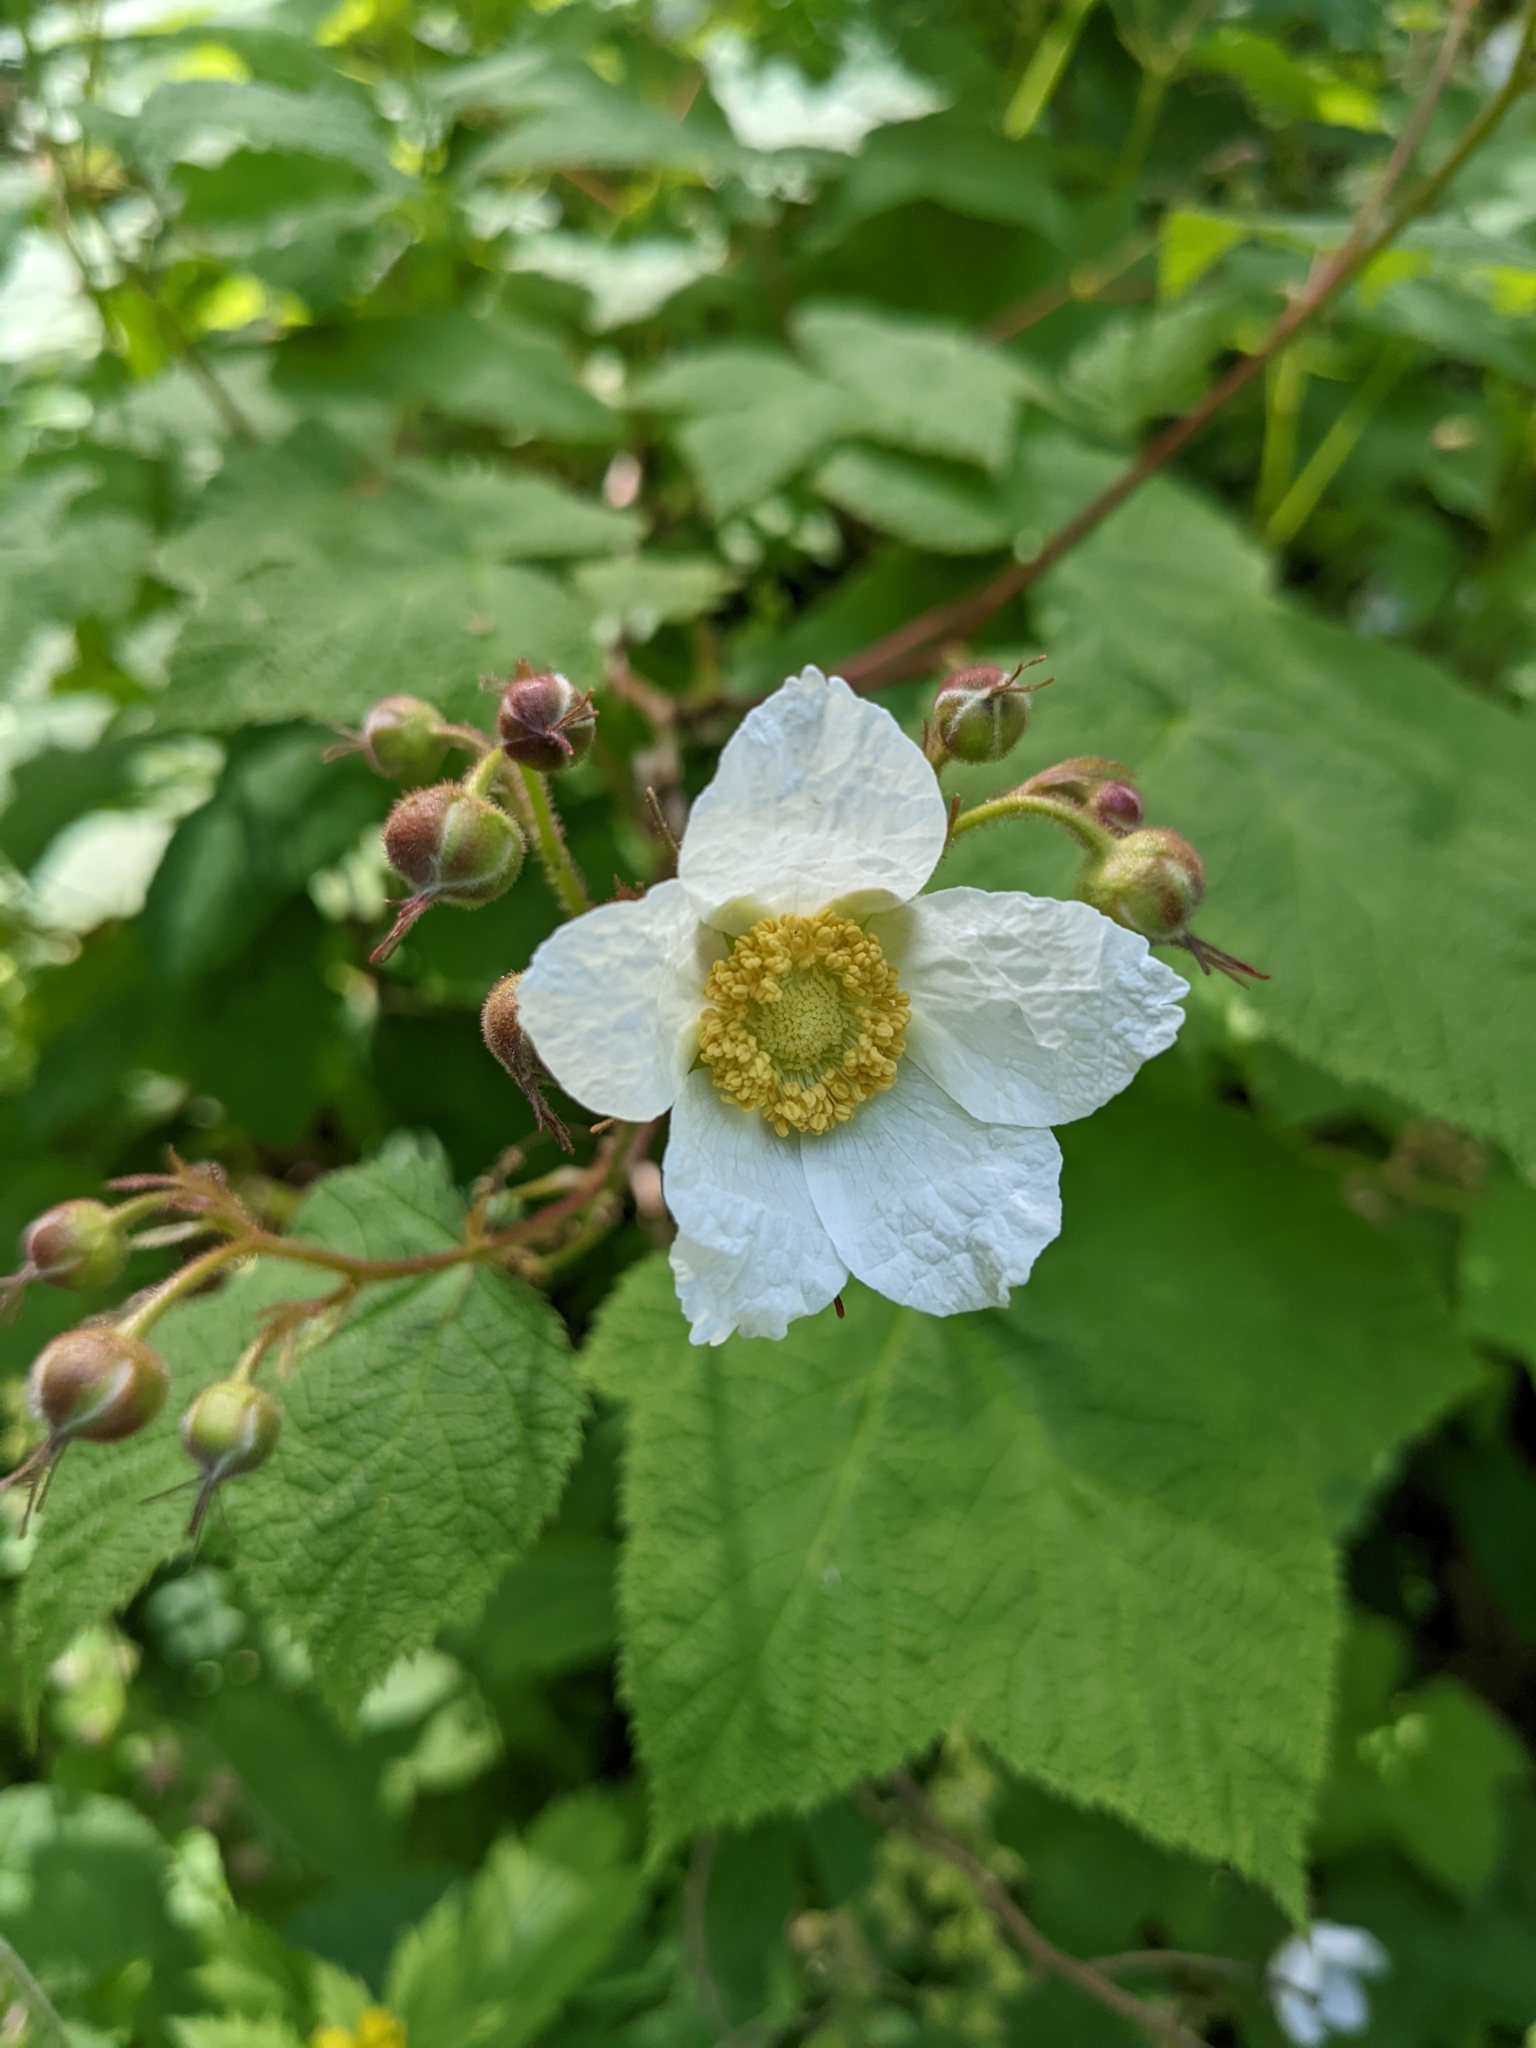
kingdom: Plantae
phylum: Tracheophyta
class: Magnoliopsida
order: Rosales
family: Rosaceae
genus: Rubus
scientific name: Rubus parviflorus
